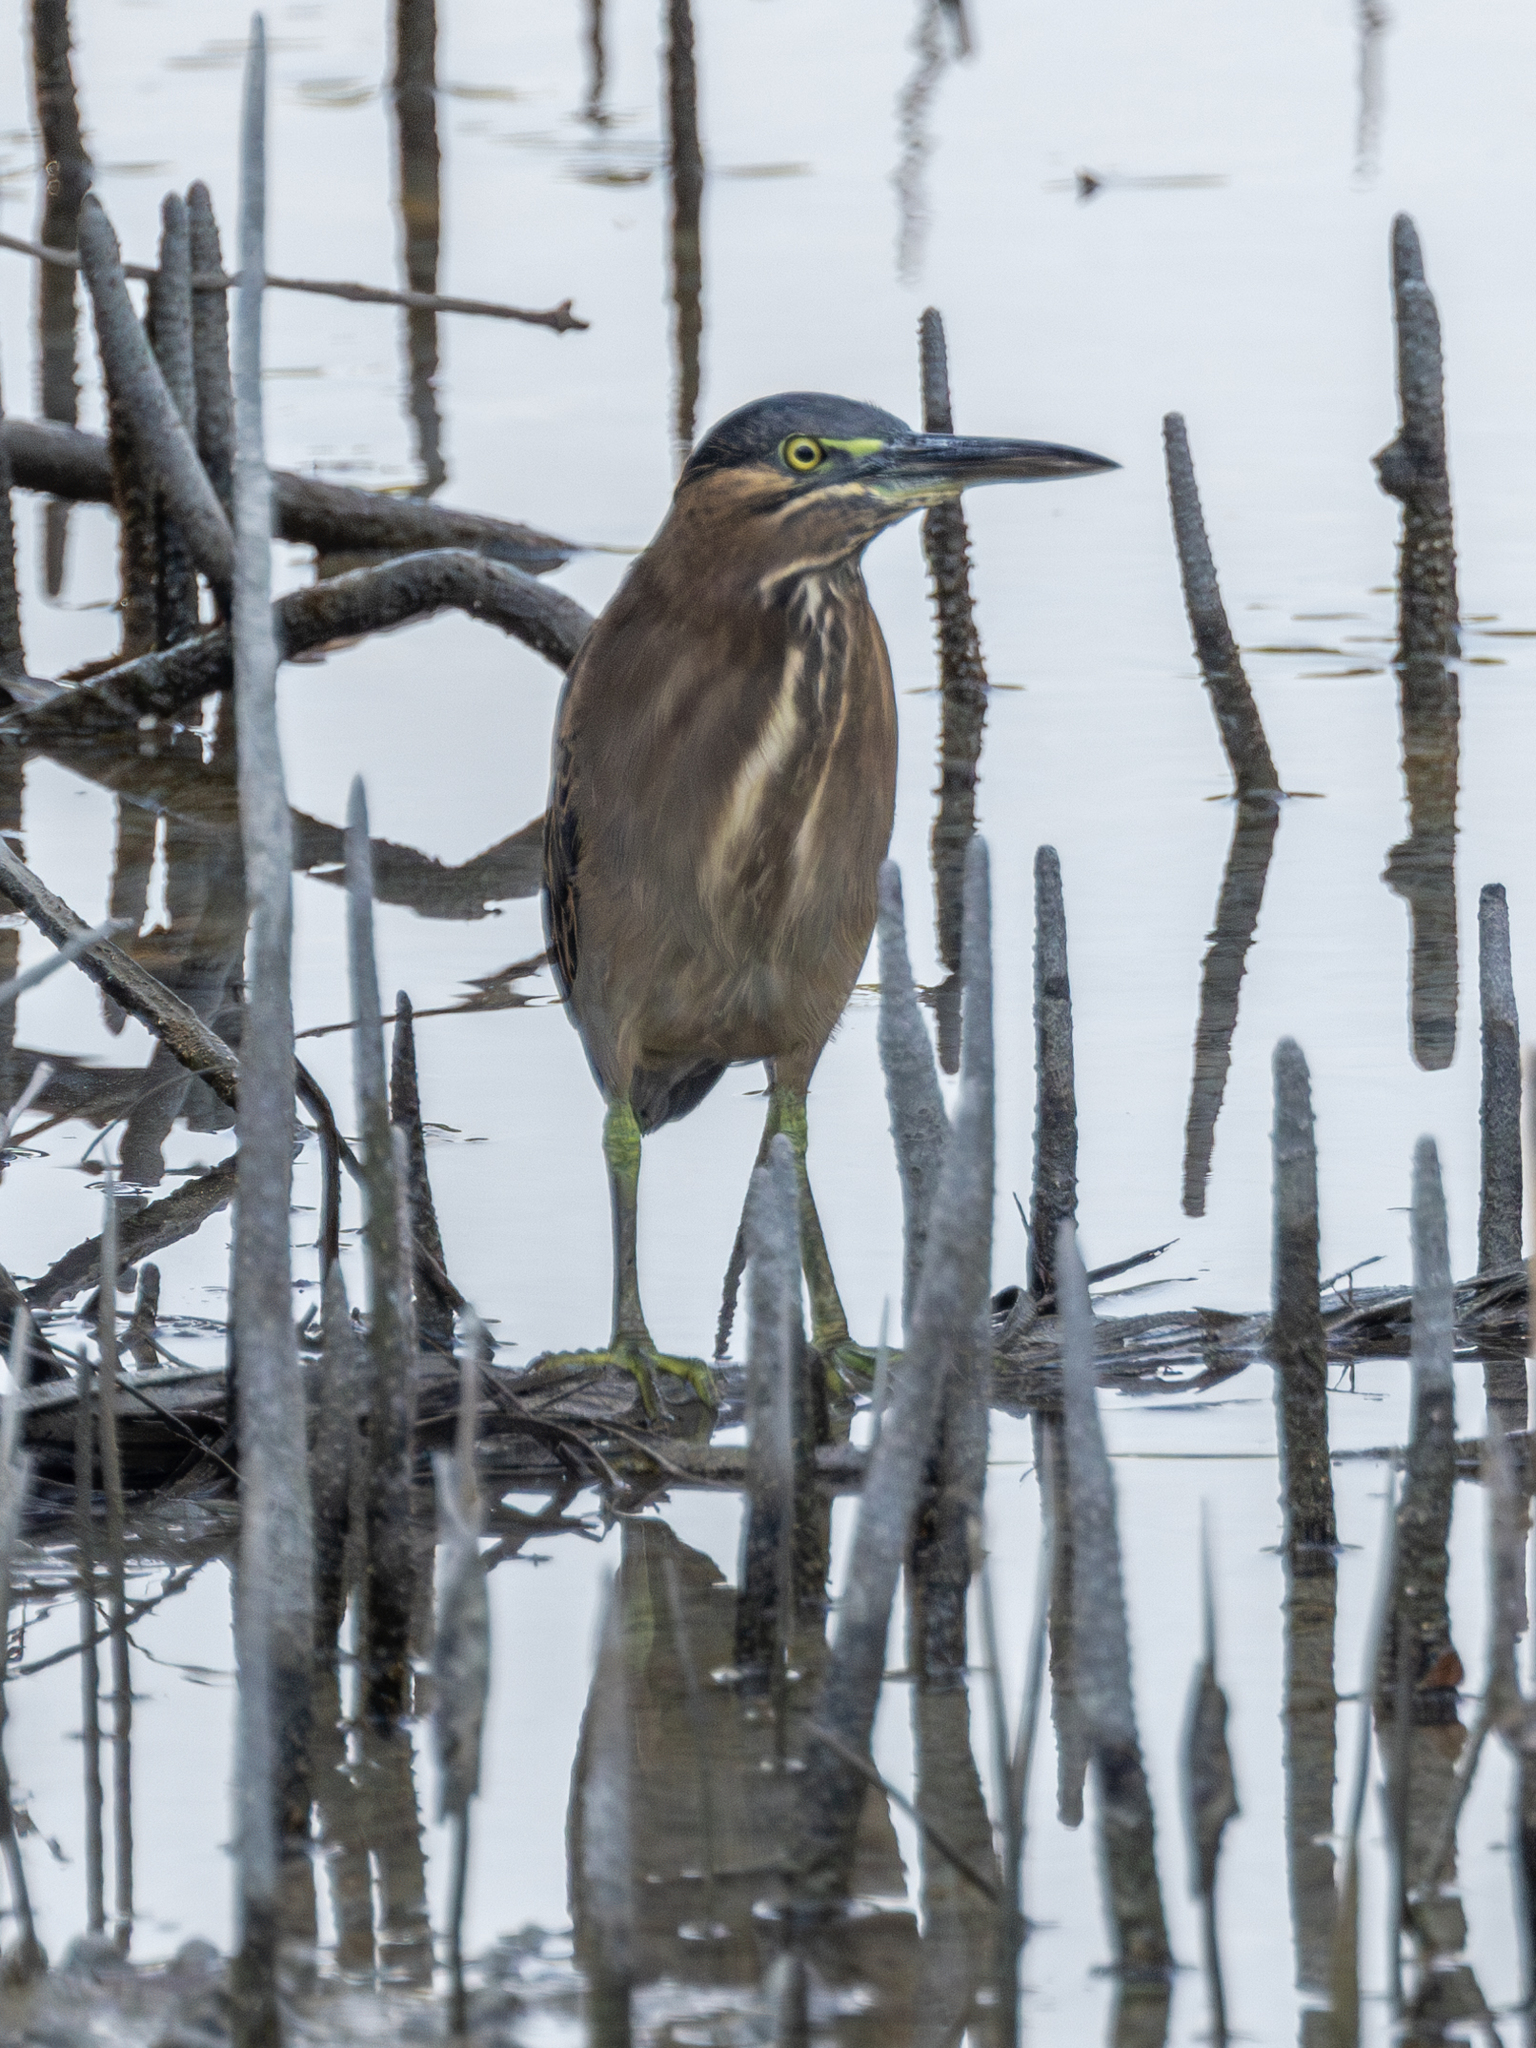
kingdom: Animalia
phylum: Chordata
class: Aves
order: Pelecaniformes
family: Ardeidae
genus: Butorides
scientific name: Butorides striata
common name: Striated heron
